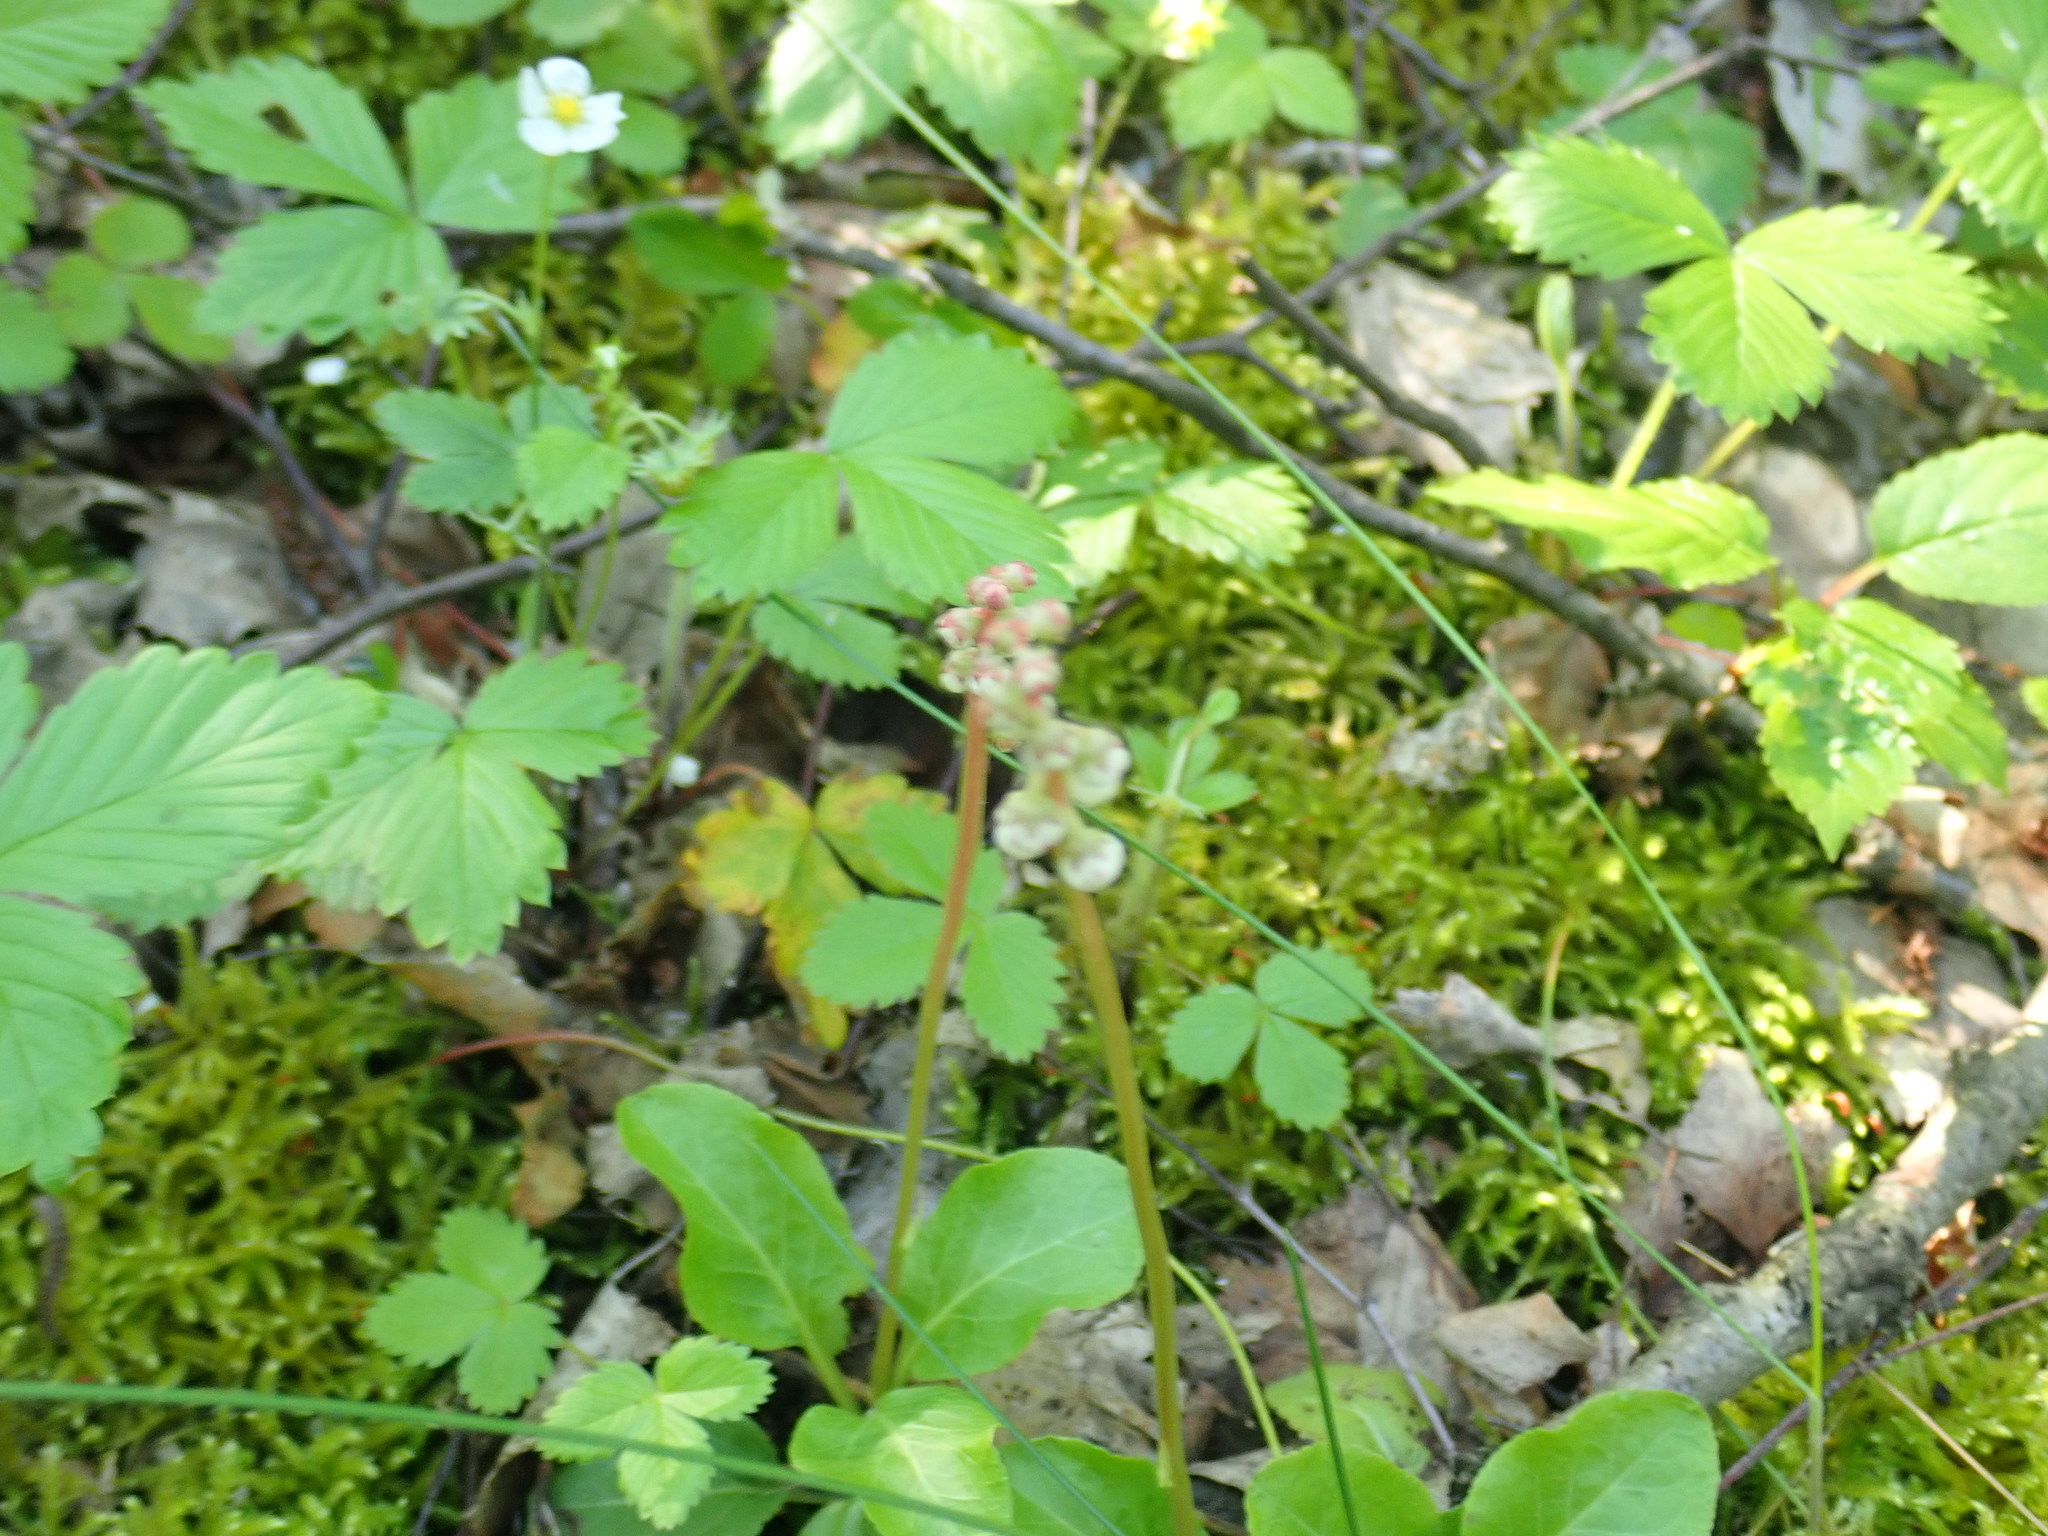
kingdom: Plantae
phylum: Tracheophyta
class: Magnoliopsida
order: Ericales
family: Ericaceae
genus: Pyrola
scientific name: Pyrola minor
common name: Common wintergreen
